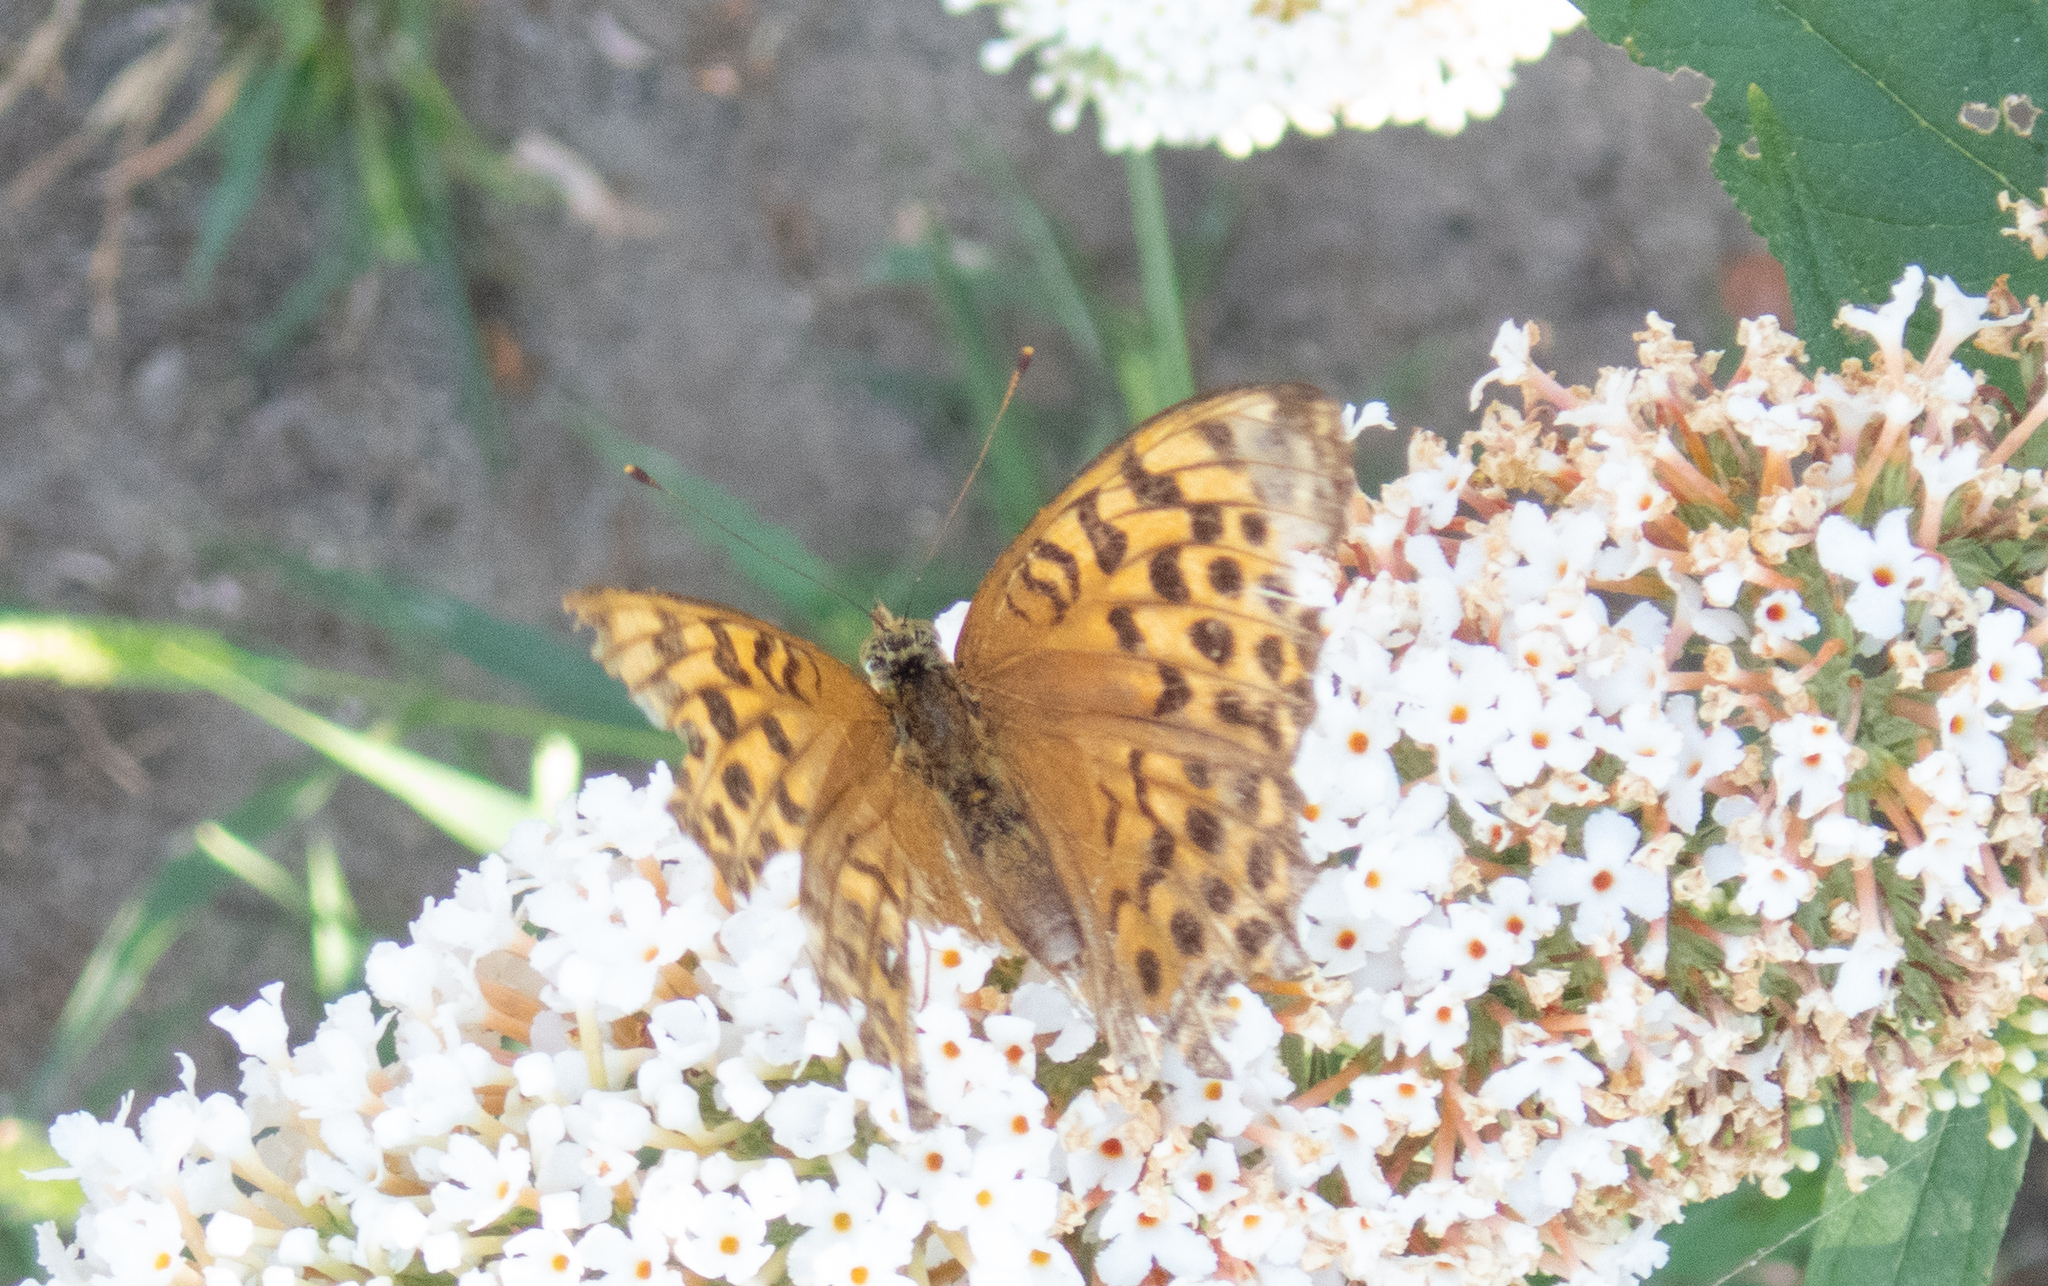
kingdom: Animalia
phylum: Arthropoda
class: Insecta
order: Lepidoptera
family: Nymphalidae
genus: Argynnis
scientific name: Argynnis paphia
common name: Silver-washed fritillary
